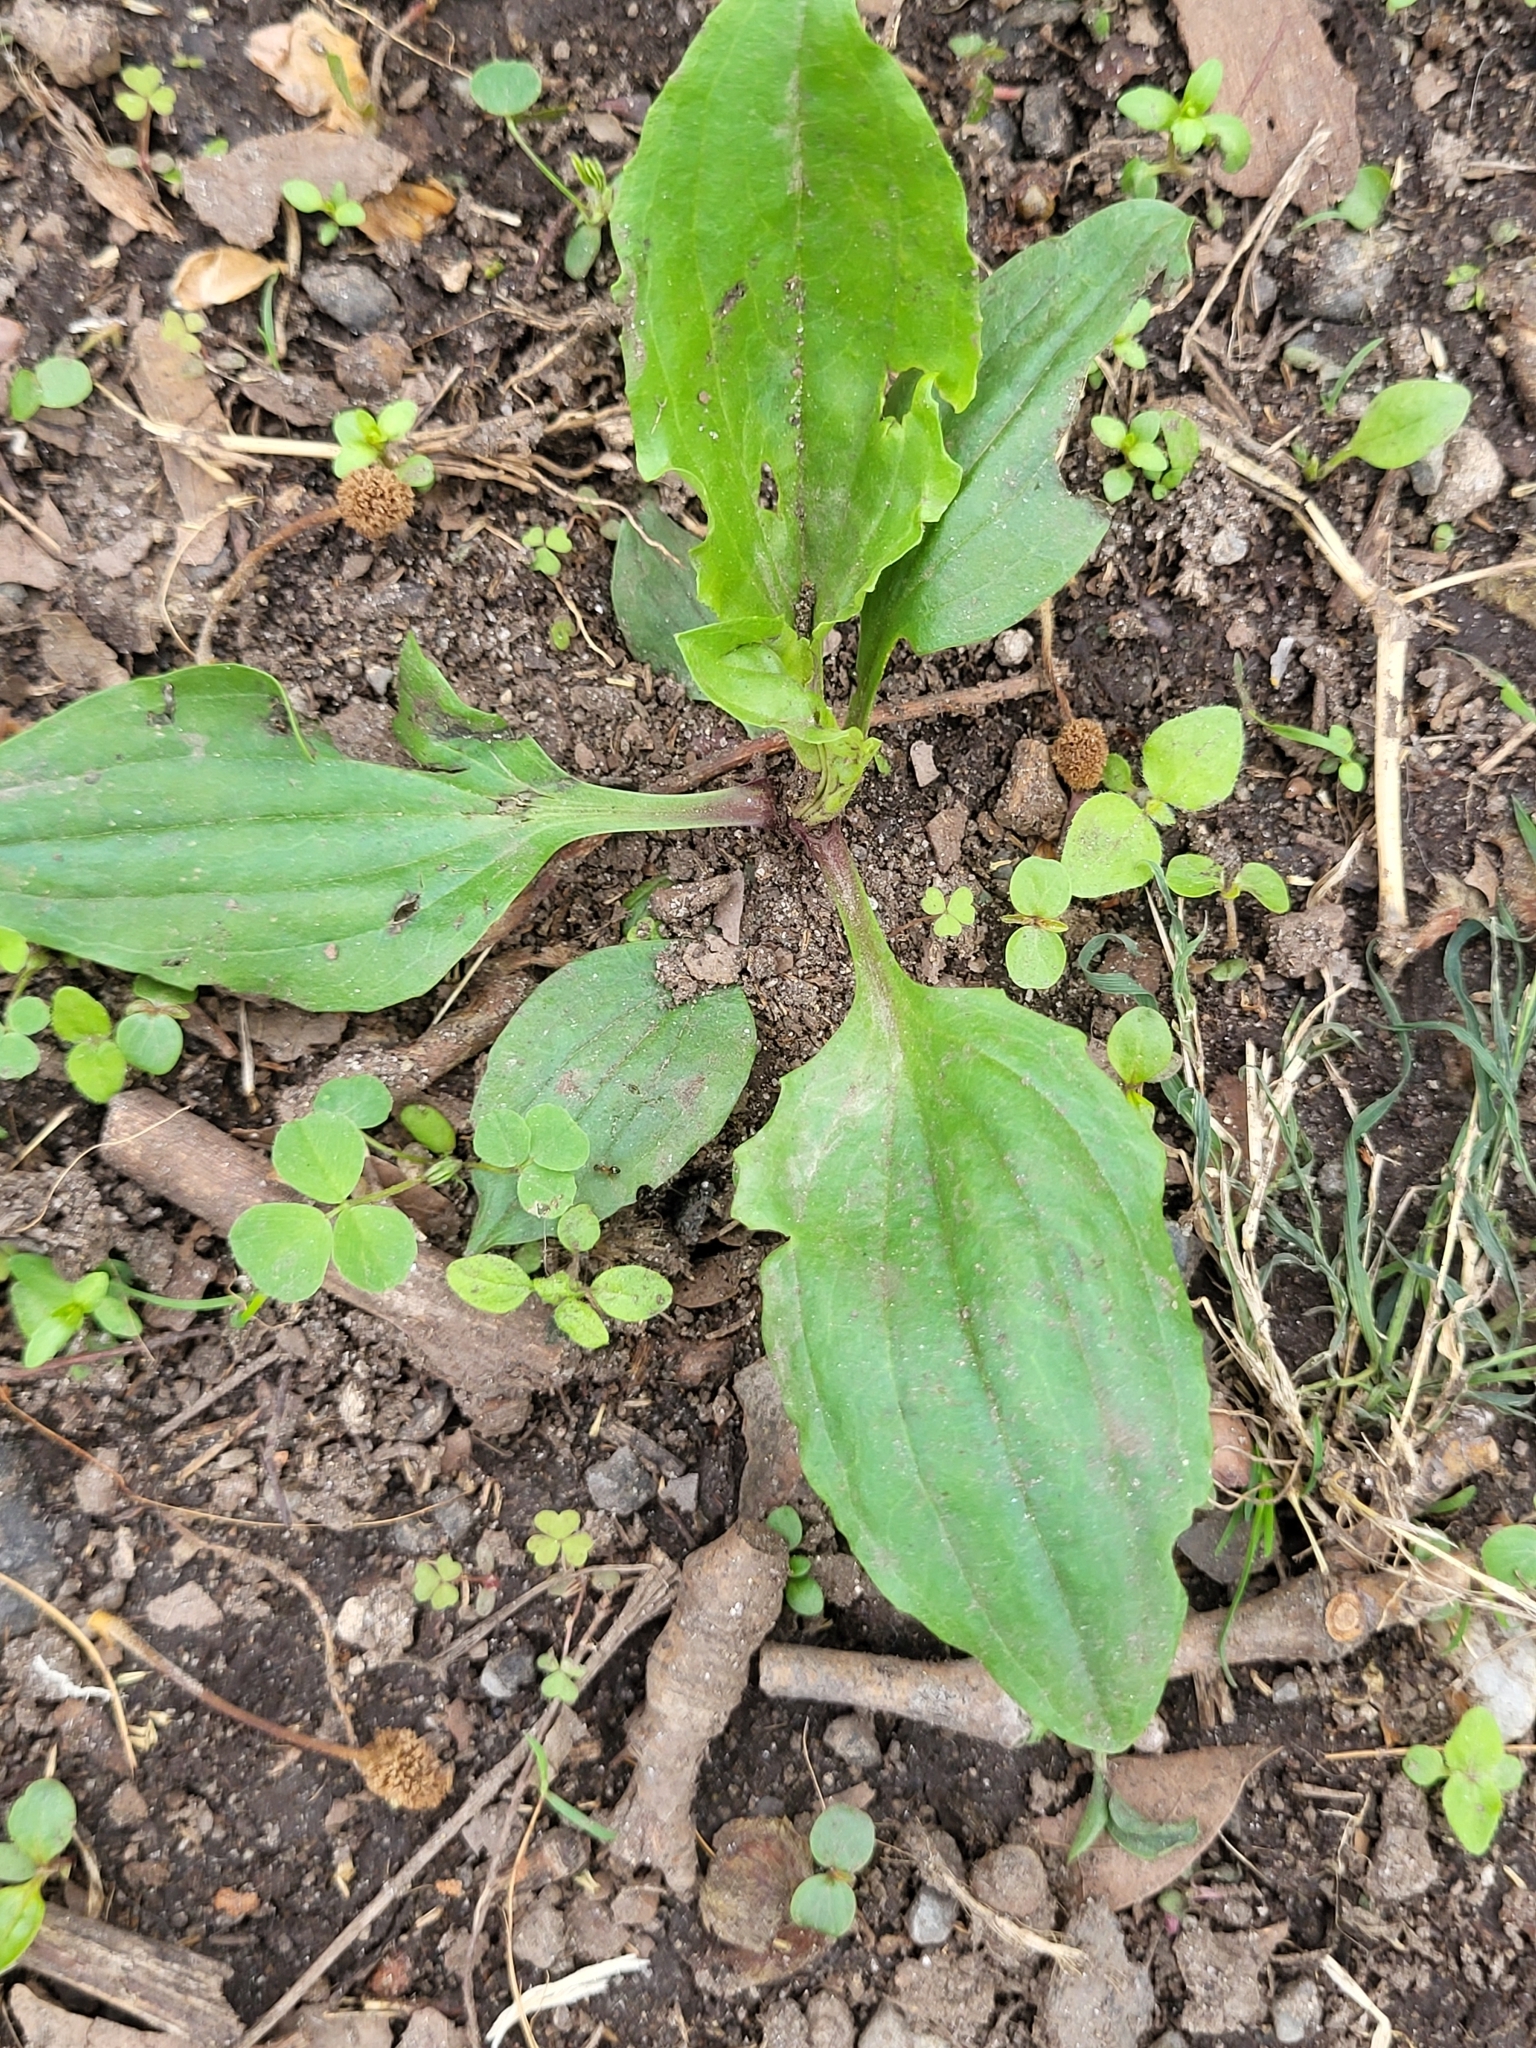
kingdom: Plantae
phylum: Tracheophyta
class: Magnoliopsida
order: Lamiales
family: Plantaginaceae
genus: Plantago
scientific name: Plantago rugelii
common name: American plantain
